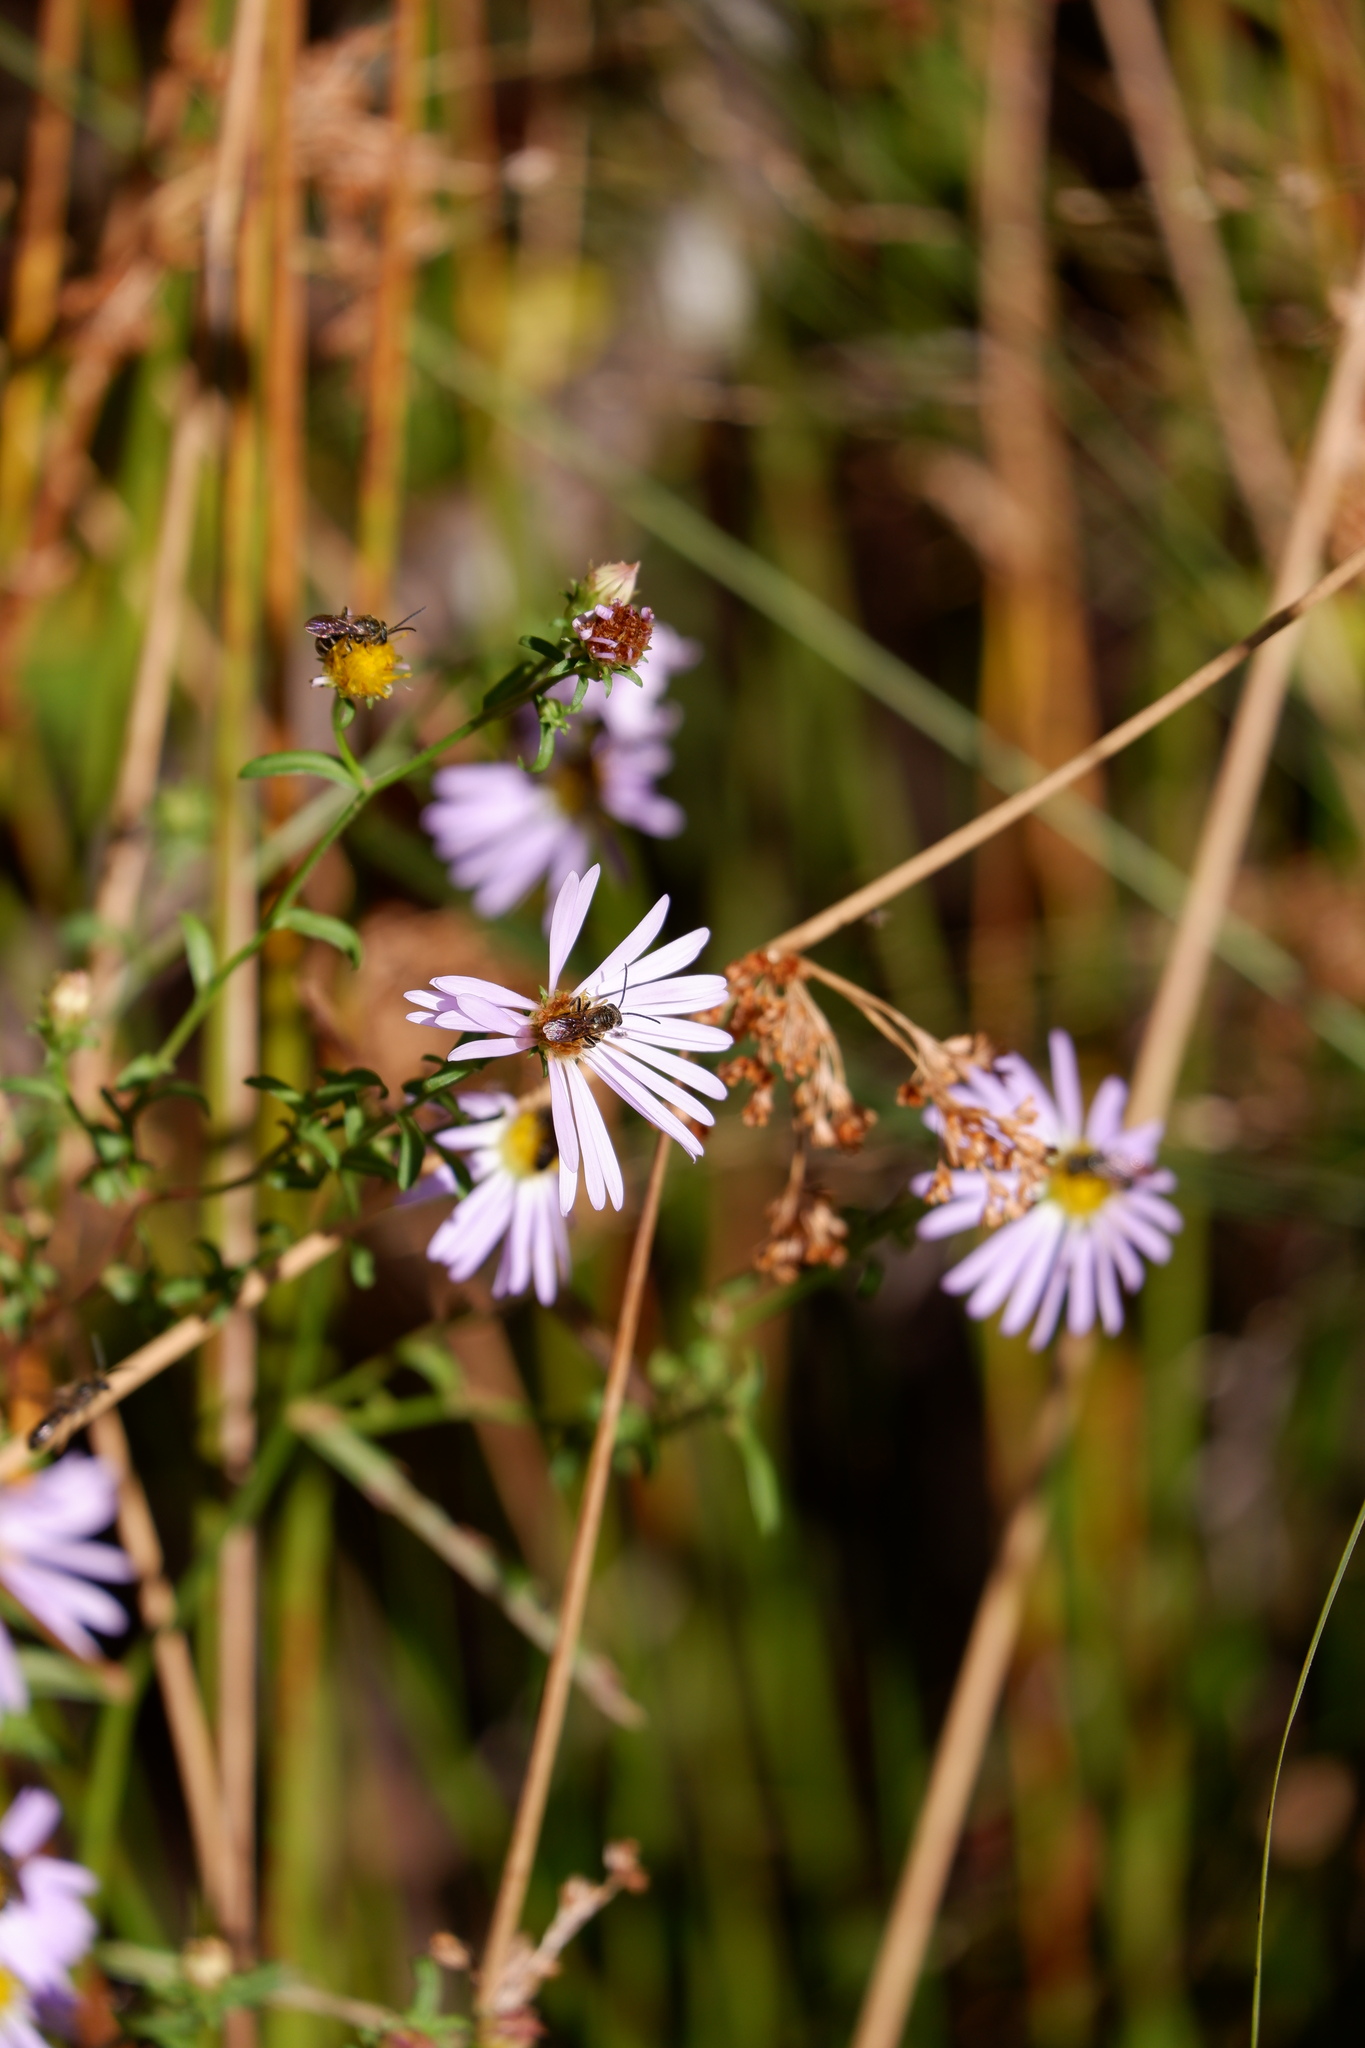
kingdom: Plantae
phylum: Tracheophyta
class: Magnoliopsida
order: Asterales
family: Asteraceae
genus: Symphyotrichum
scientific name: Symphyotrichum novi-belgii
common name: Michaelmas daisy
